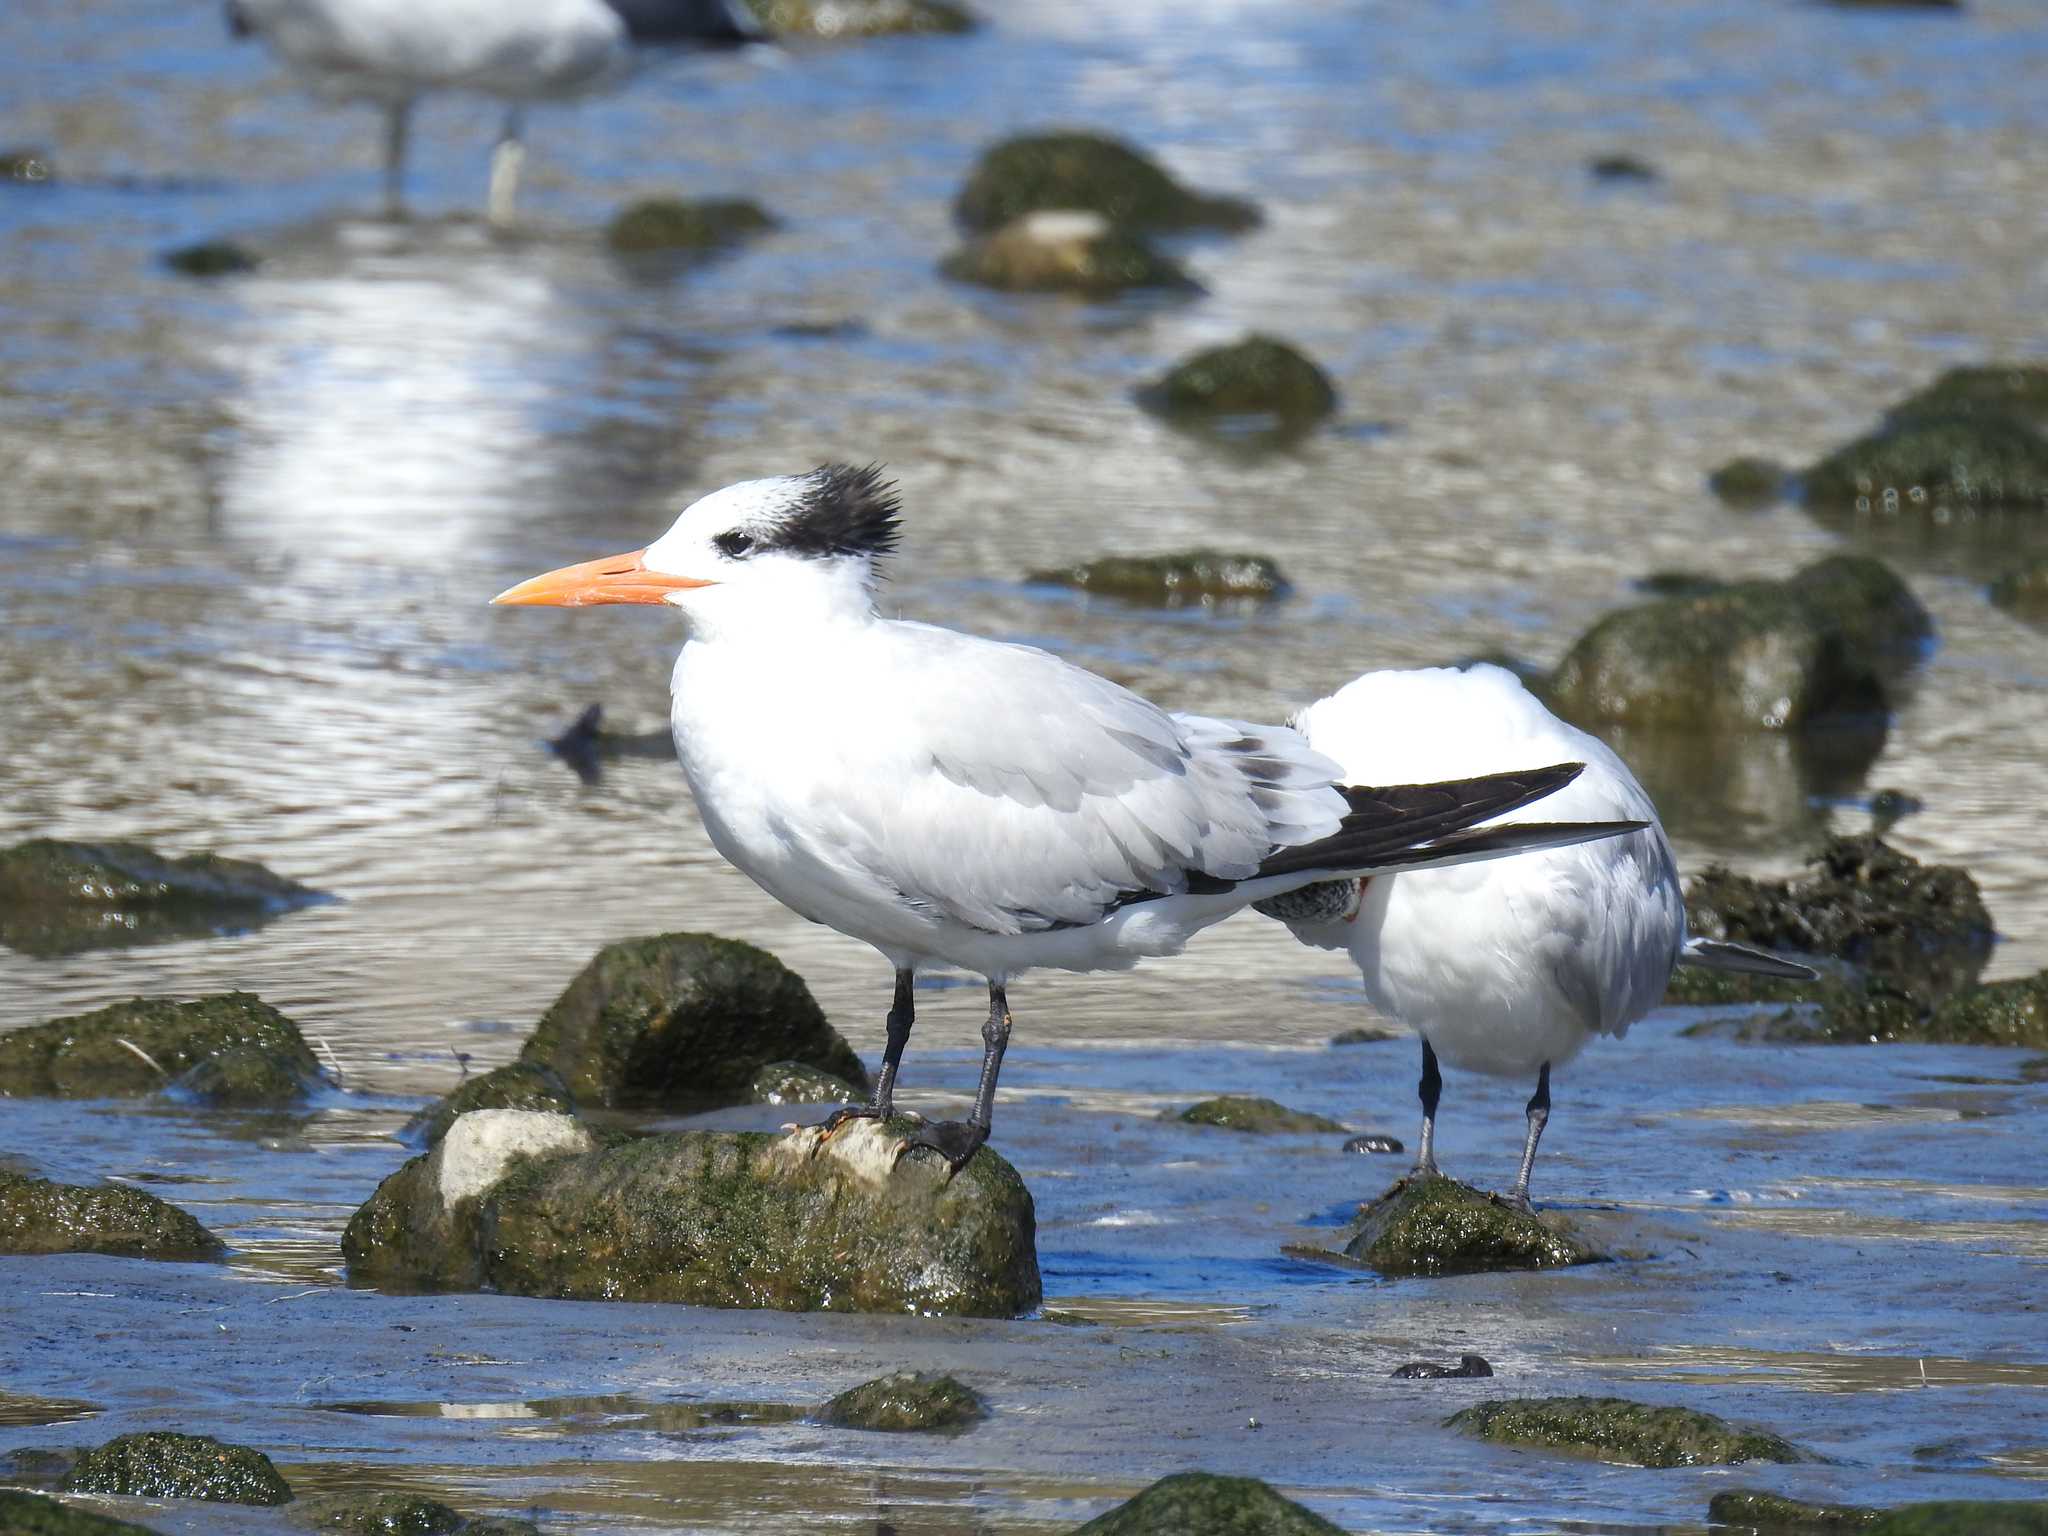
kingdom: Animalia
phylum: Chordata
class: Aves
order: Charadriiformes
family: Laridae
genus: Thalasseus
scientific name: Thalasseus maximus
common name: Royal tern
